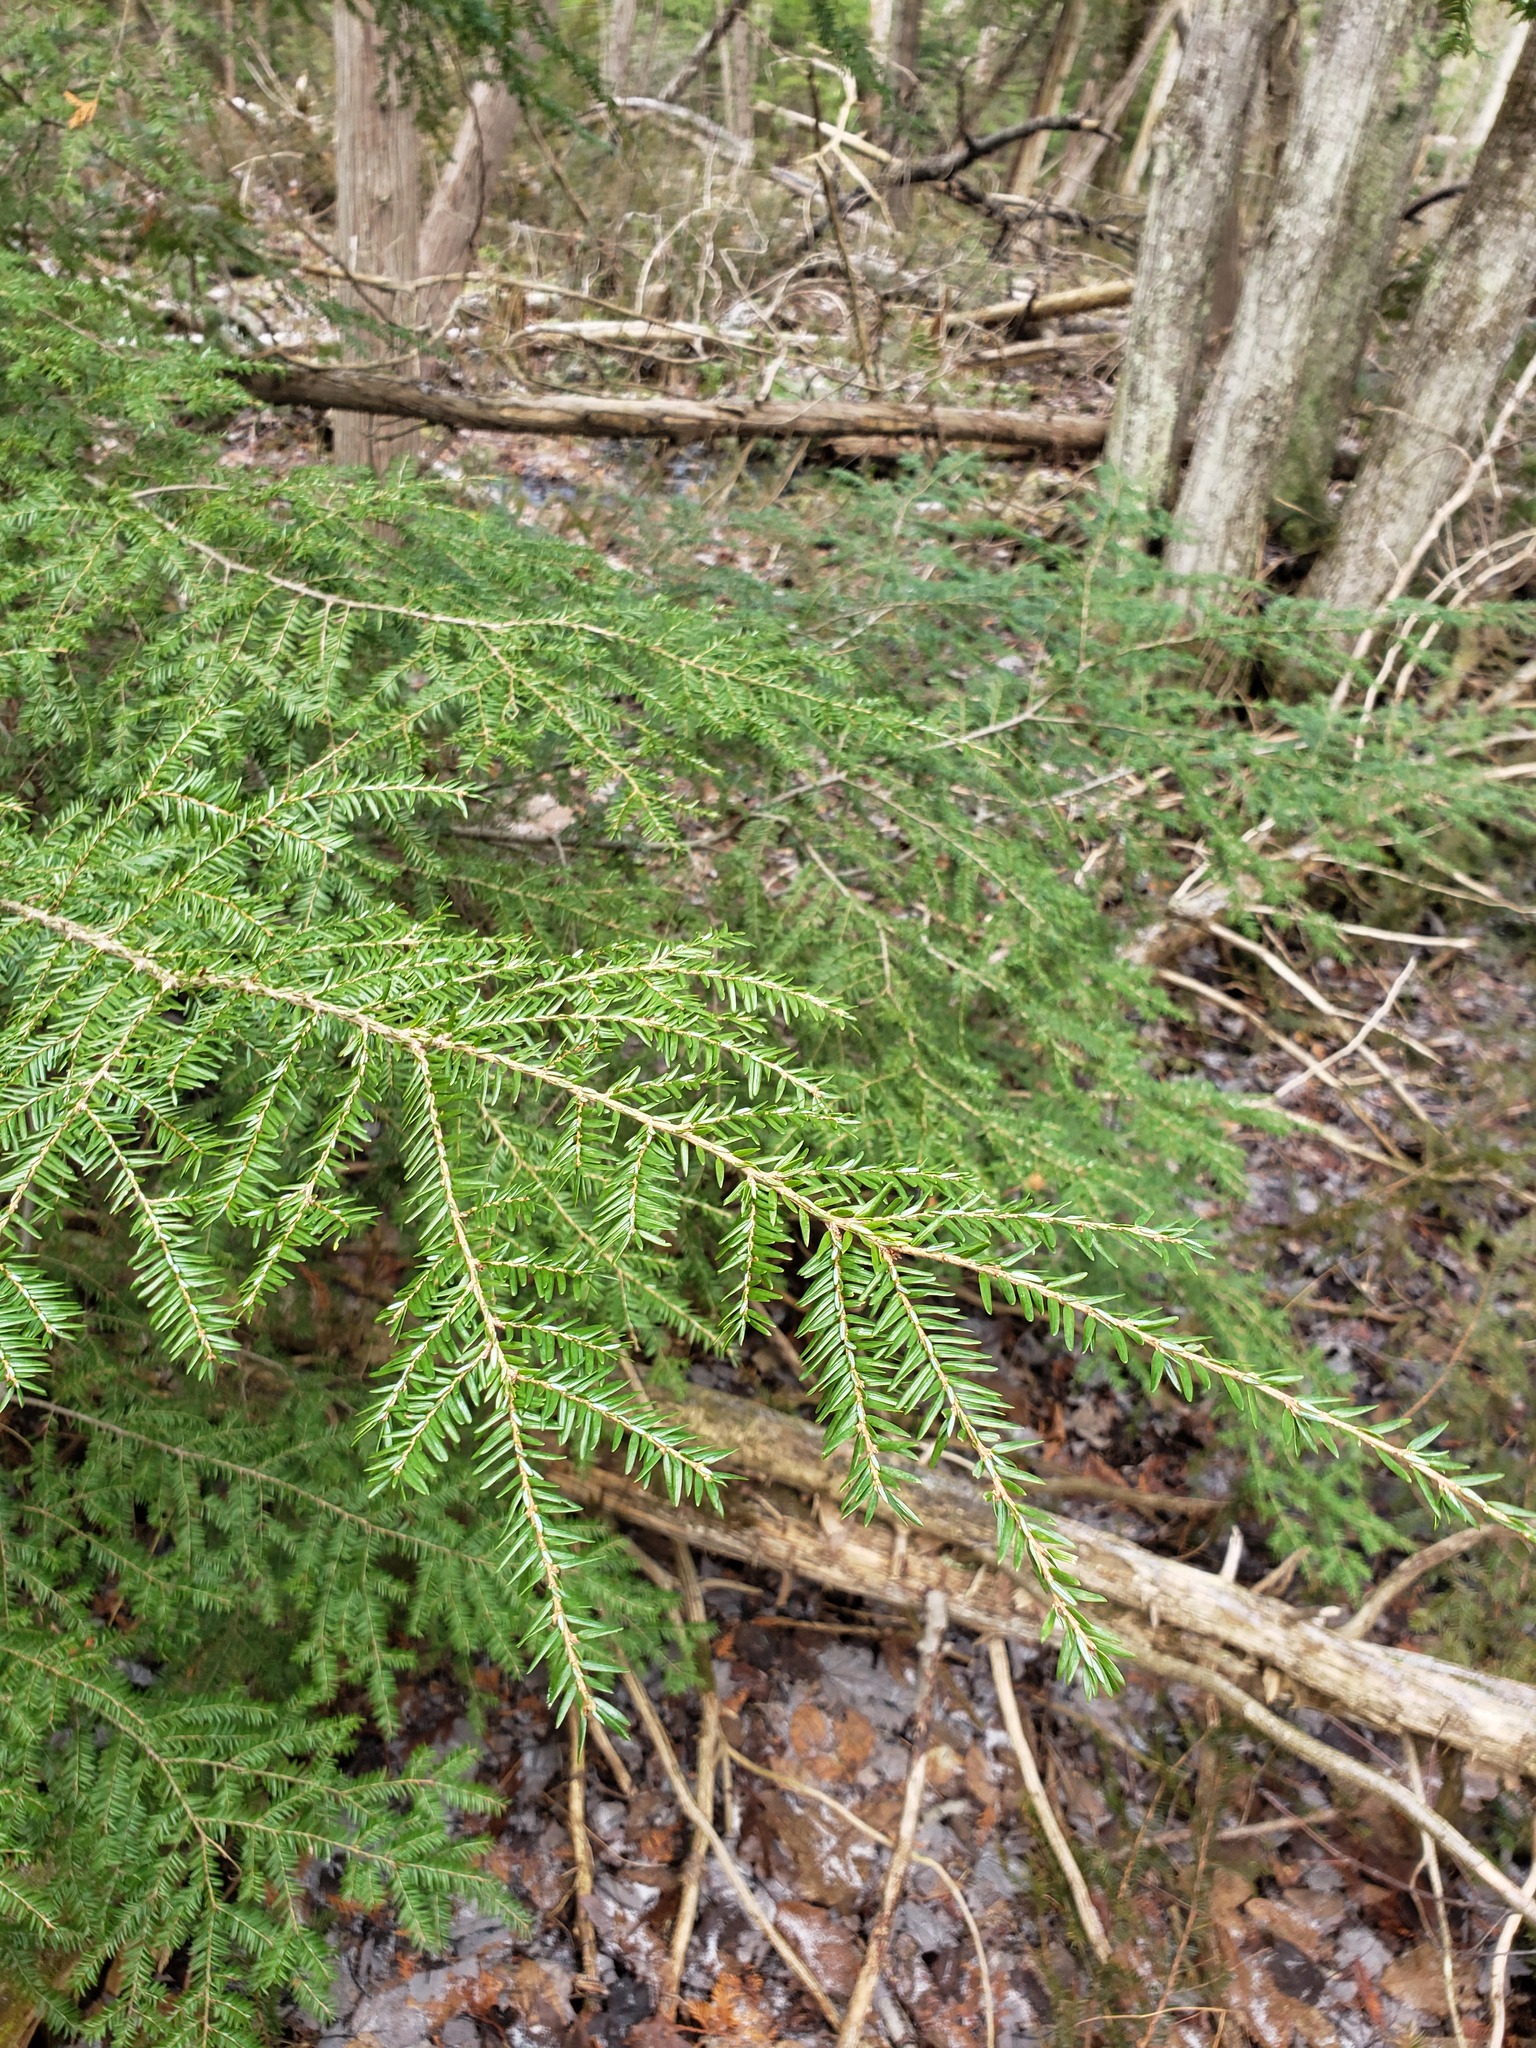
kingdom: Plantae
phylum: Tracheophyta
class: Pinopsida
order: Pinales
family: Pinaceae
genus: Tsuga
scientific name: Tsuga canadensis
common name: Eastern hemlock
